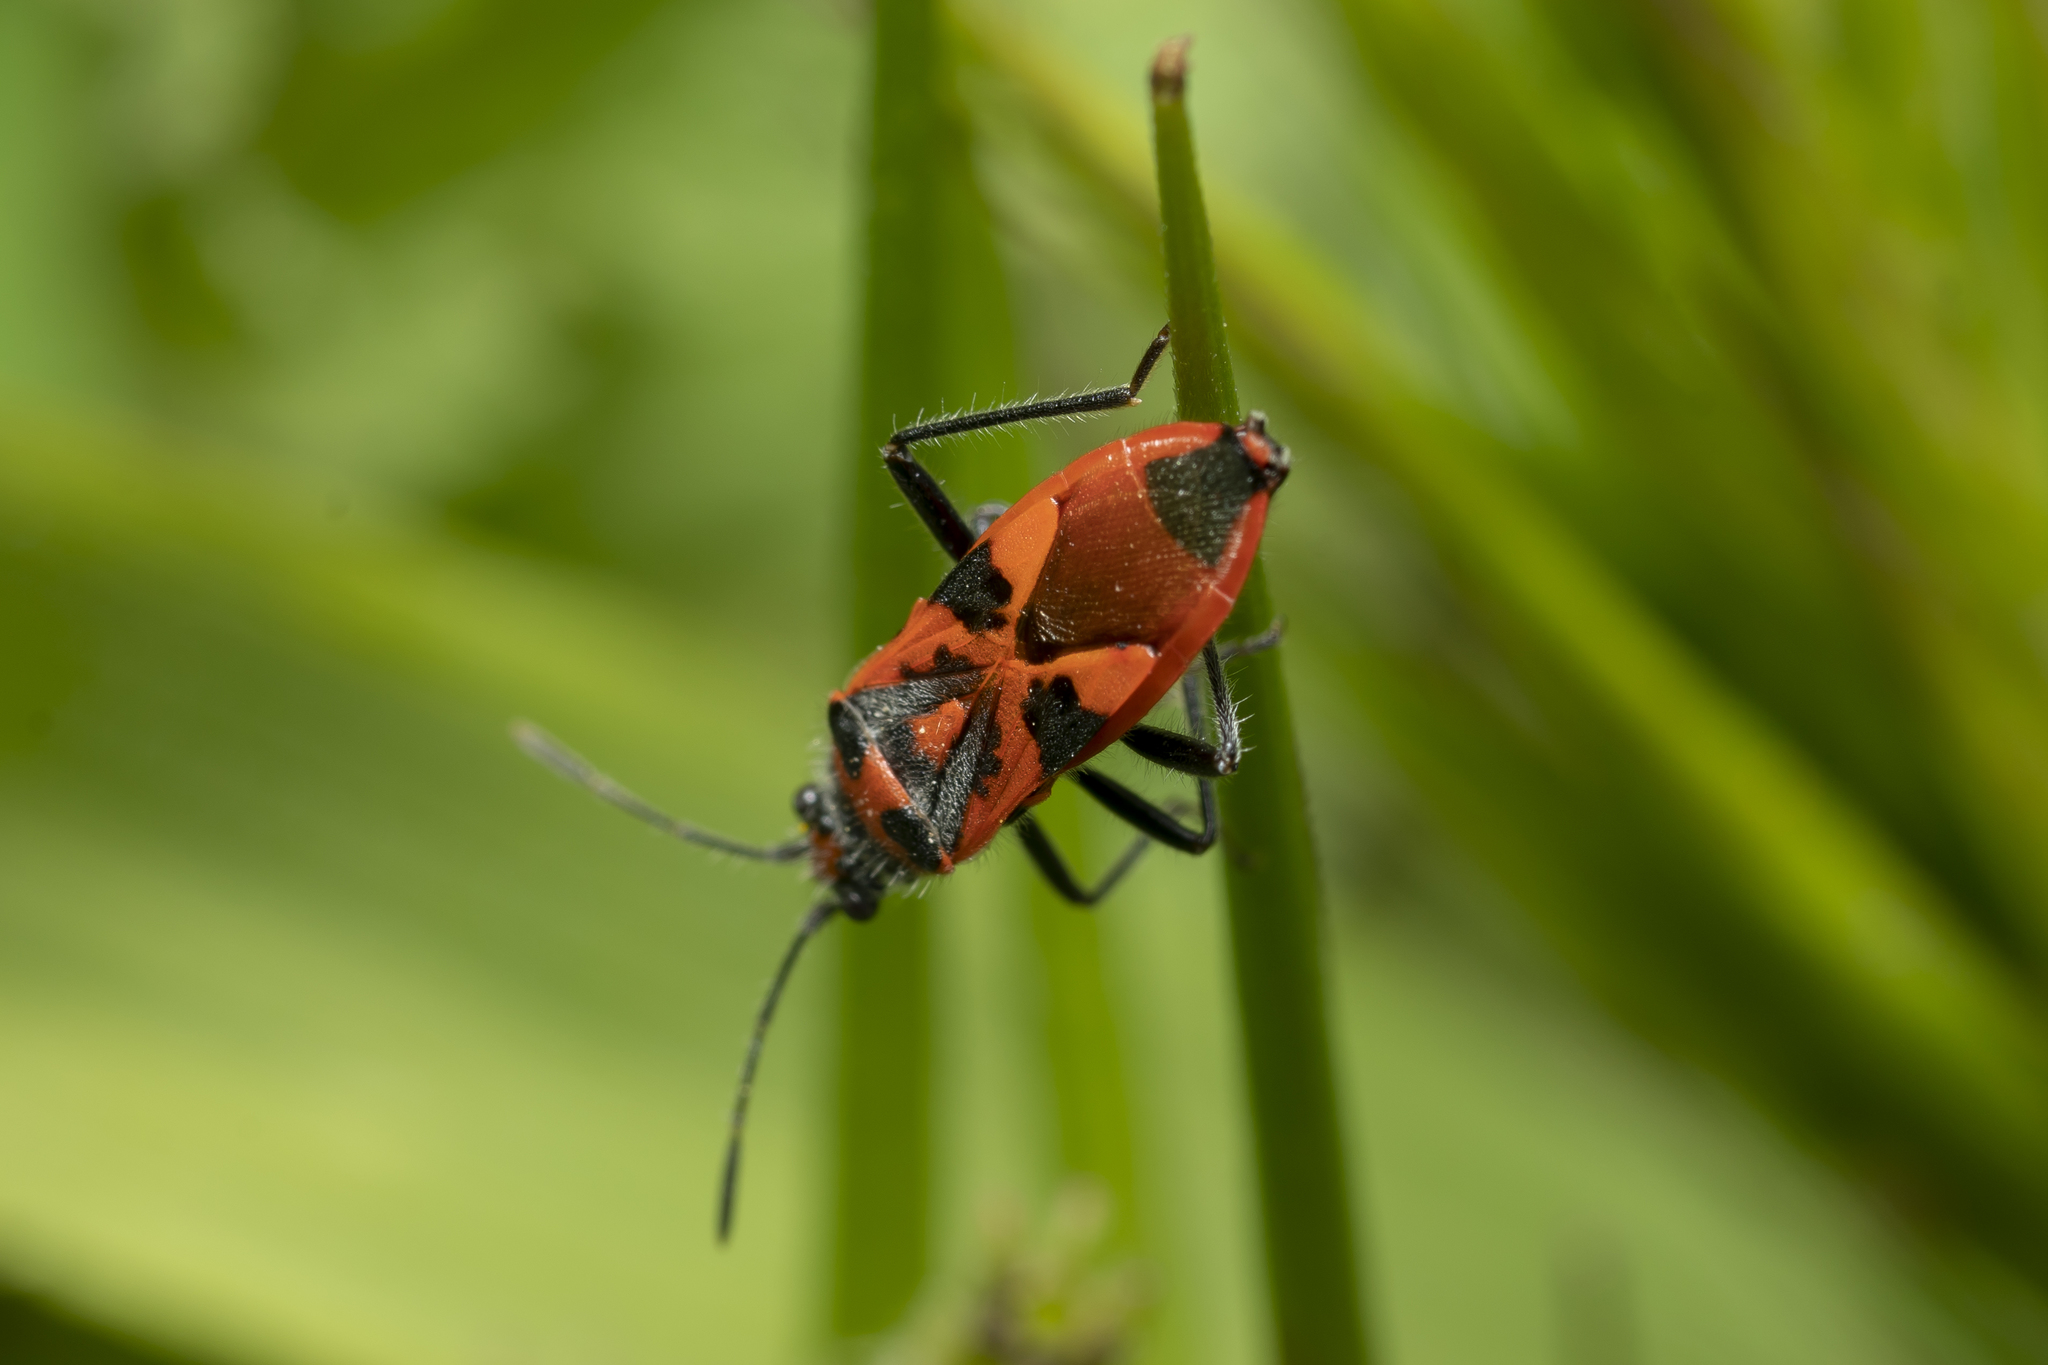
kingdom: Animalia
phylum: Arthropoda
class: Insecta
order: Hemiptera
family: Rhopalidae
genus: Corizus
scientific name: Corizus hyoscyami
